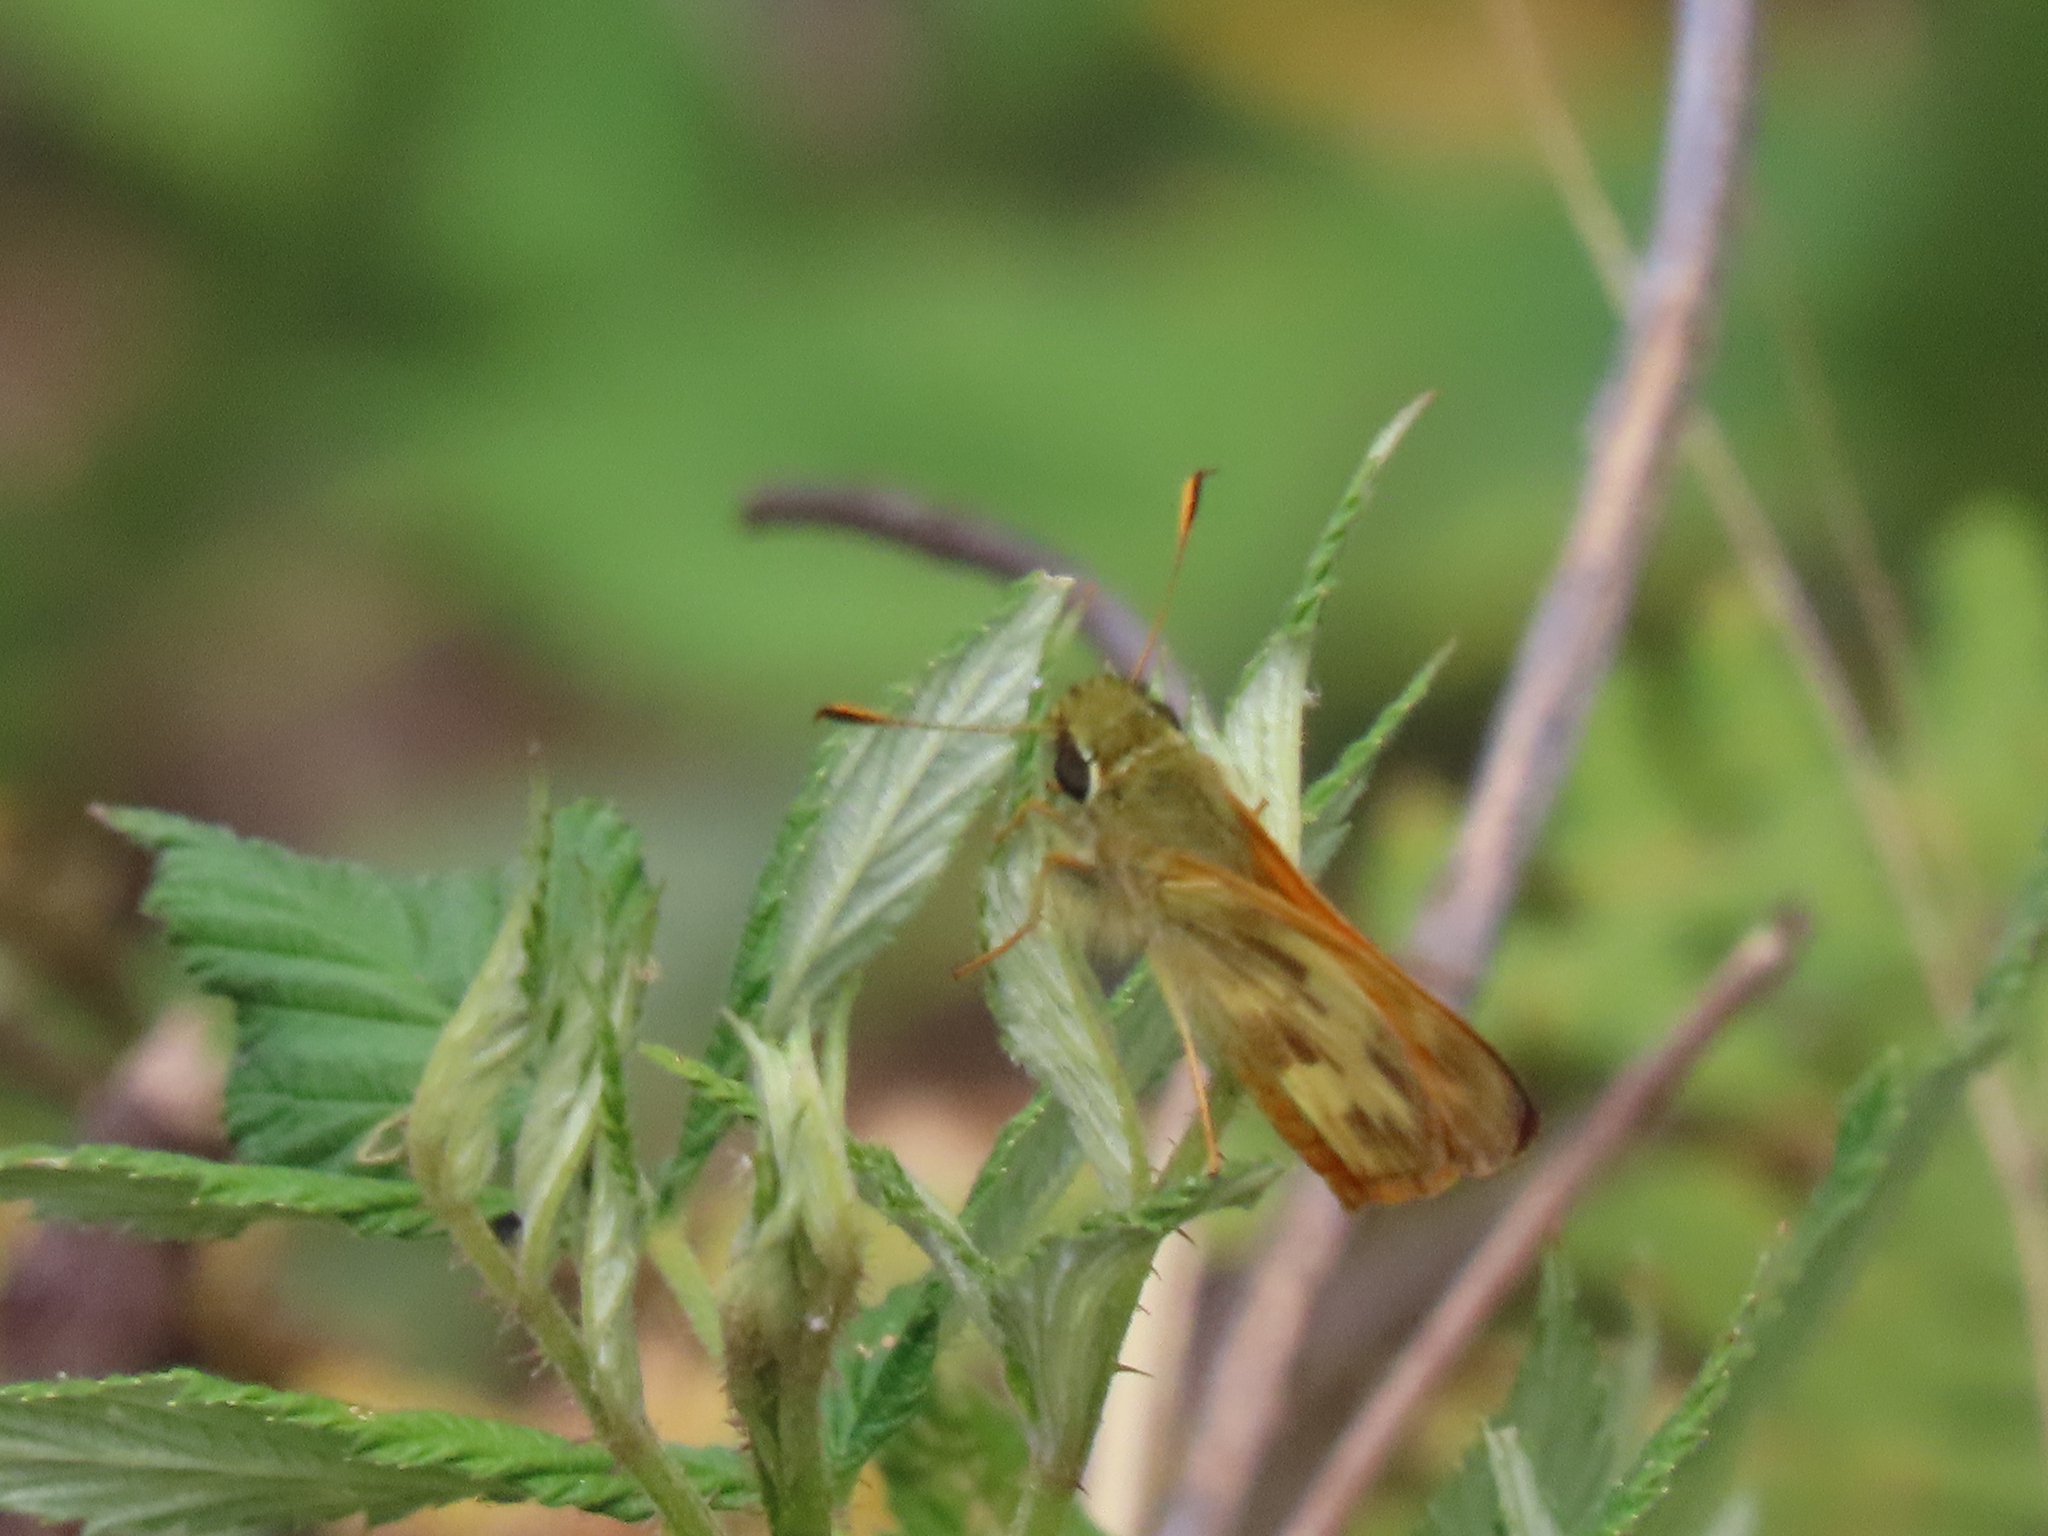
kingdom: Animalia
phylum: Arthropoda
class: Insecta
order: Lepidoptera
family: Hesperiidae
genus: Lon
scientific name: Lon taxiles
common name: Taxiles skipper
